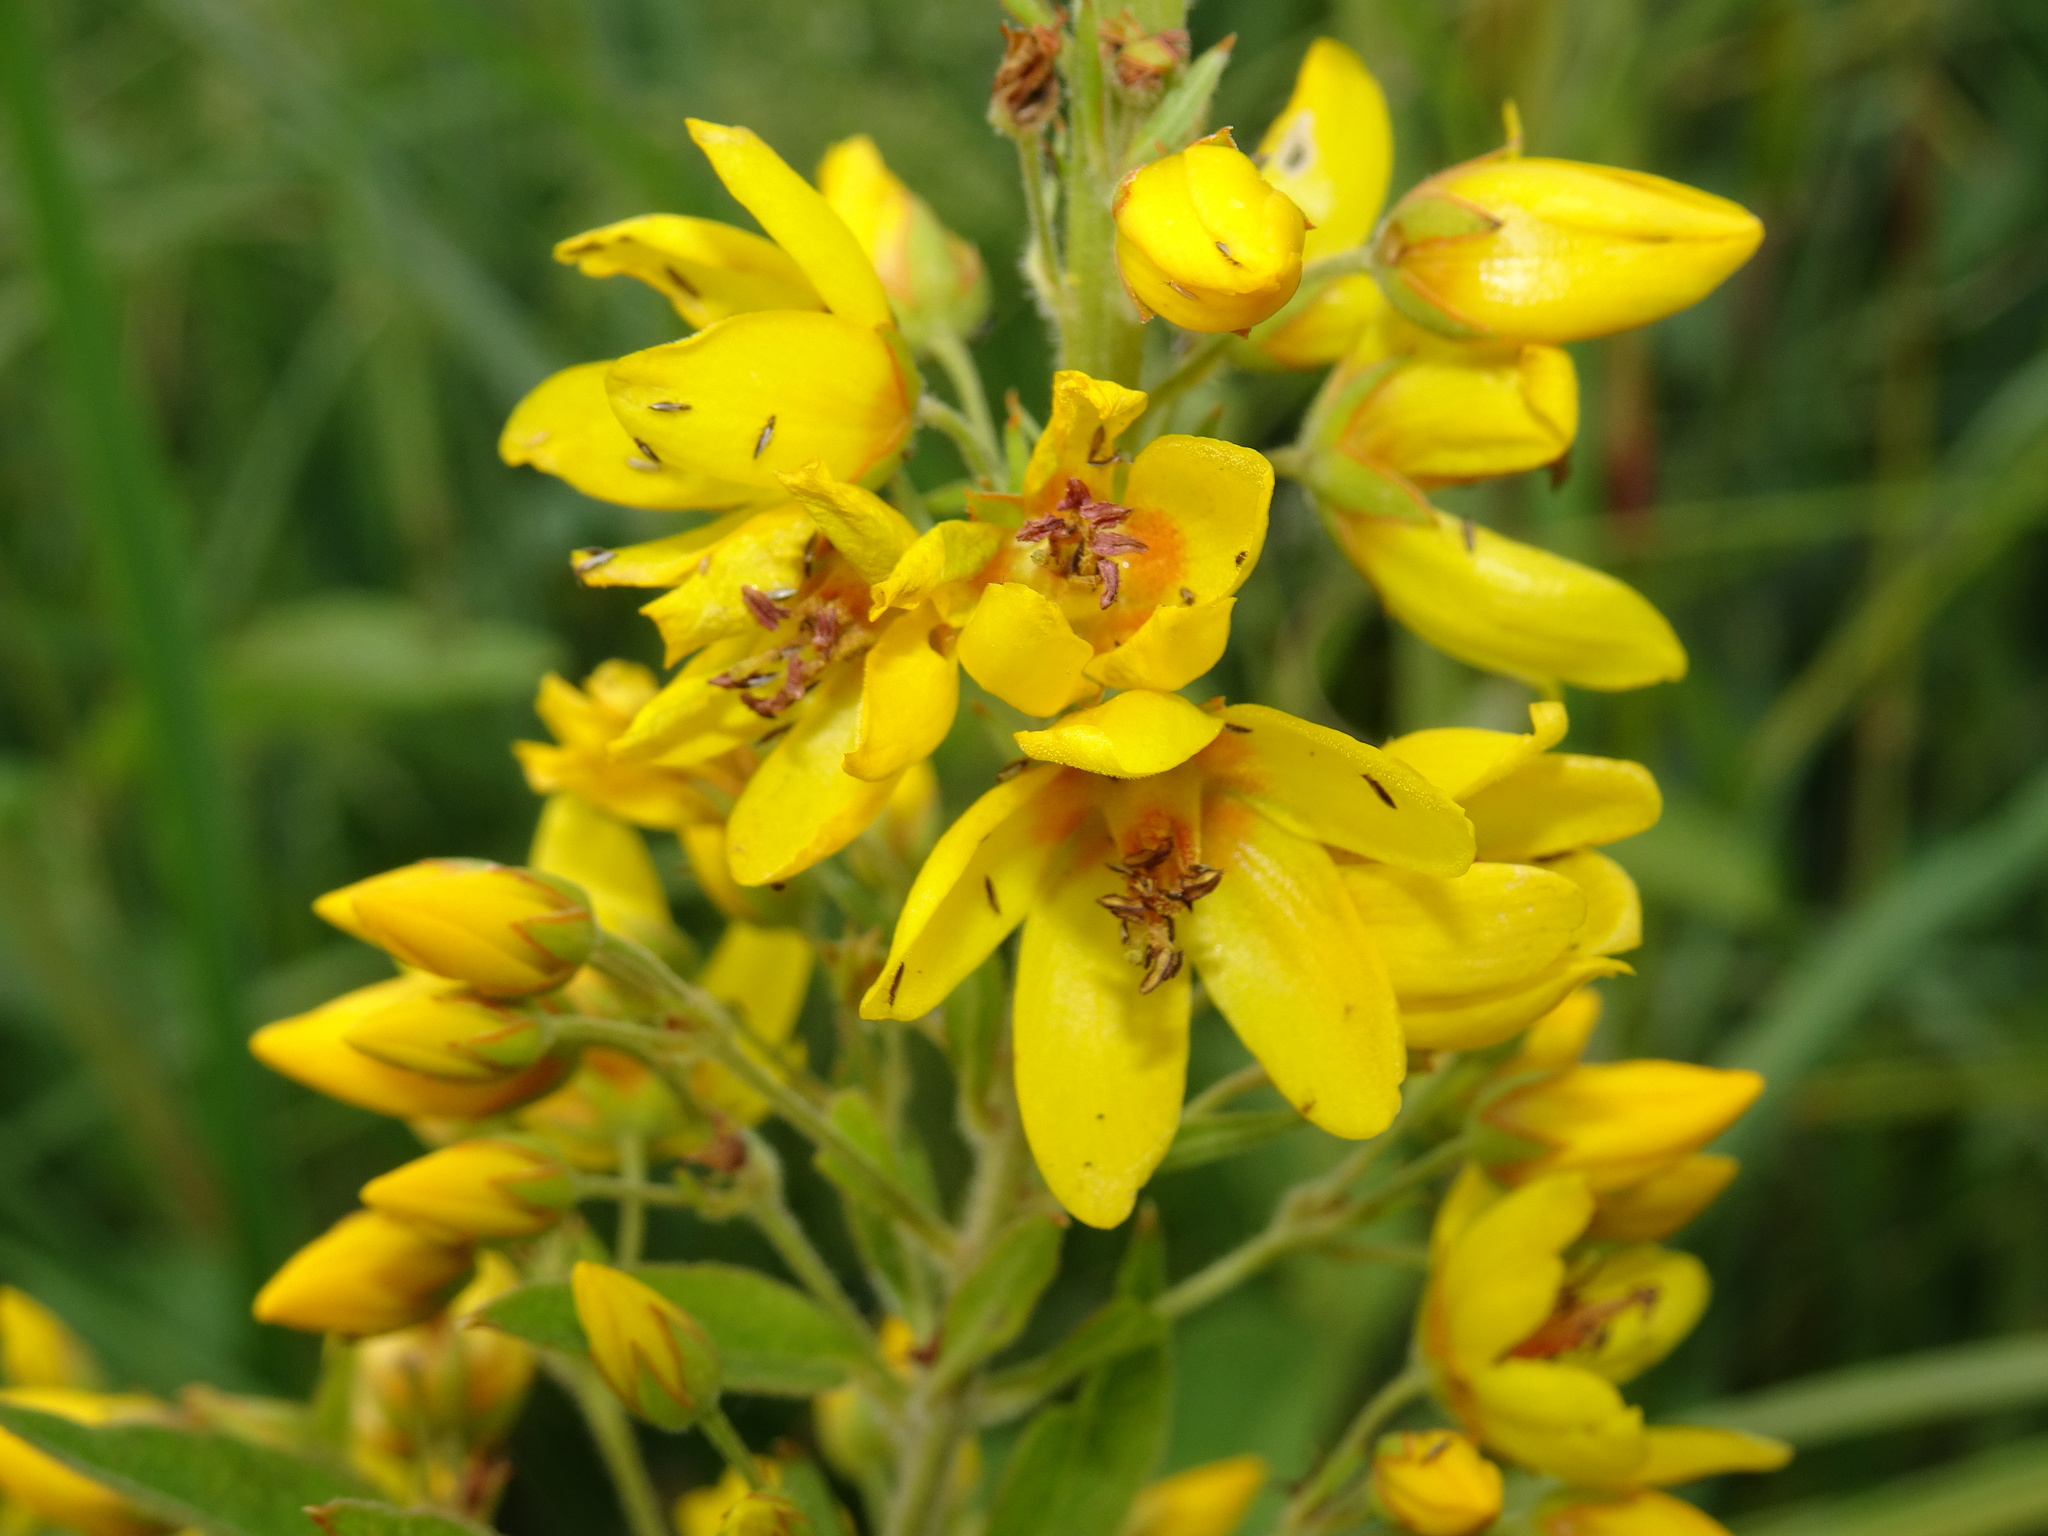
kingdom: Plantae
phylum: Tracheophyta
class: Magnoliopsida
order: Ericales
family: Primulaceae
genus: Lysimachia
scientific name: Lysimachia vulgaris
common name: Yellow loosestrife
